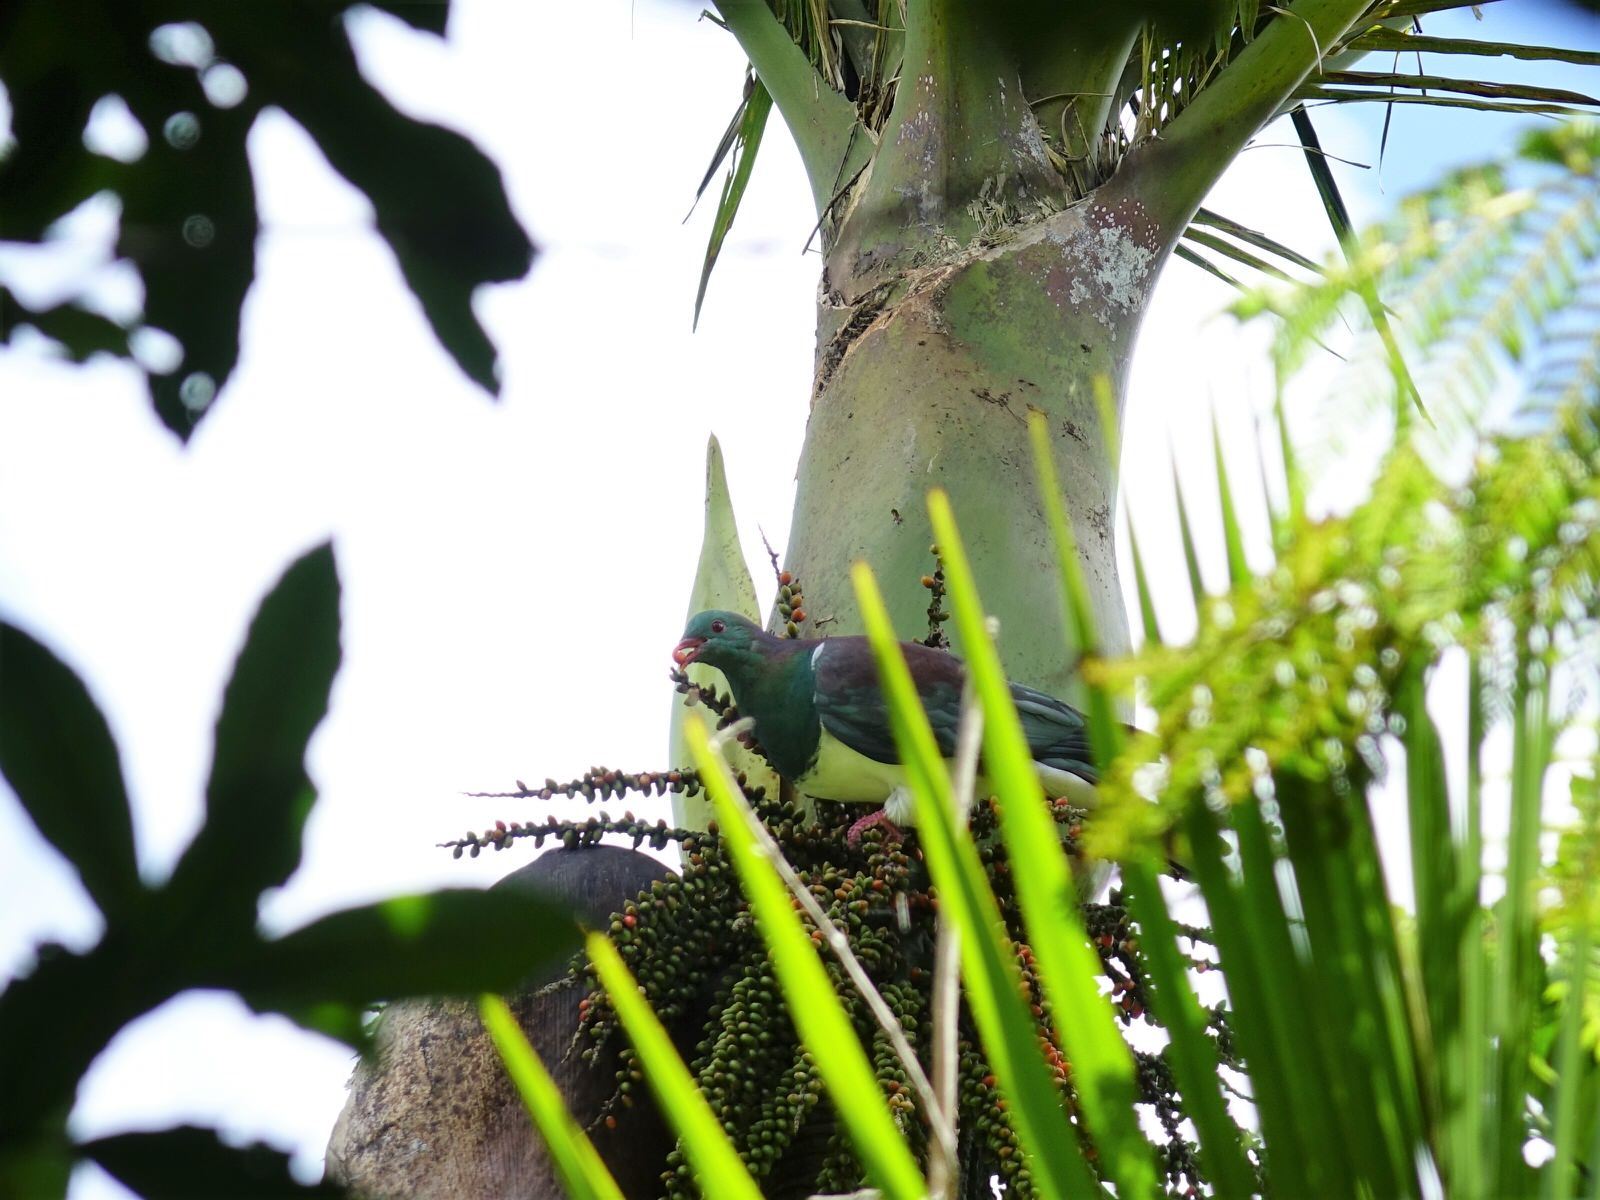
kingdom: Animalia
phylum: Chordata
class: Aves
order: Columbiformes
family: Columbidae
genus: Hemiphaga
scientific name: Hemiphaga novaeseelandiae
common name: New zealand pigeon
